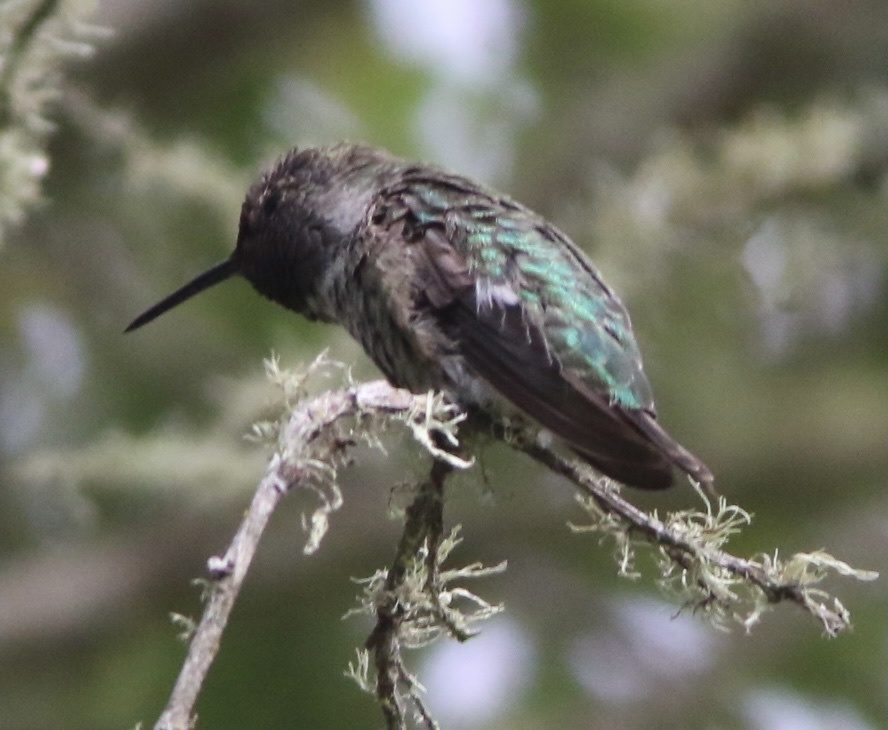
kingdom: Animalia
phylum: Chordata
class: Aves
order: Apodiformes
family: Trochilidae
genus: Calypte
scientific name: Calypte anna
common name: Anna's hummingbird
